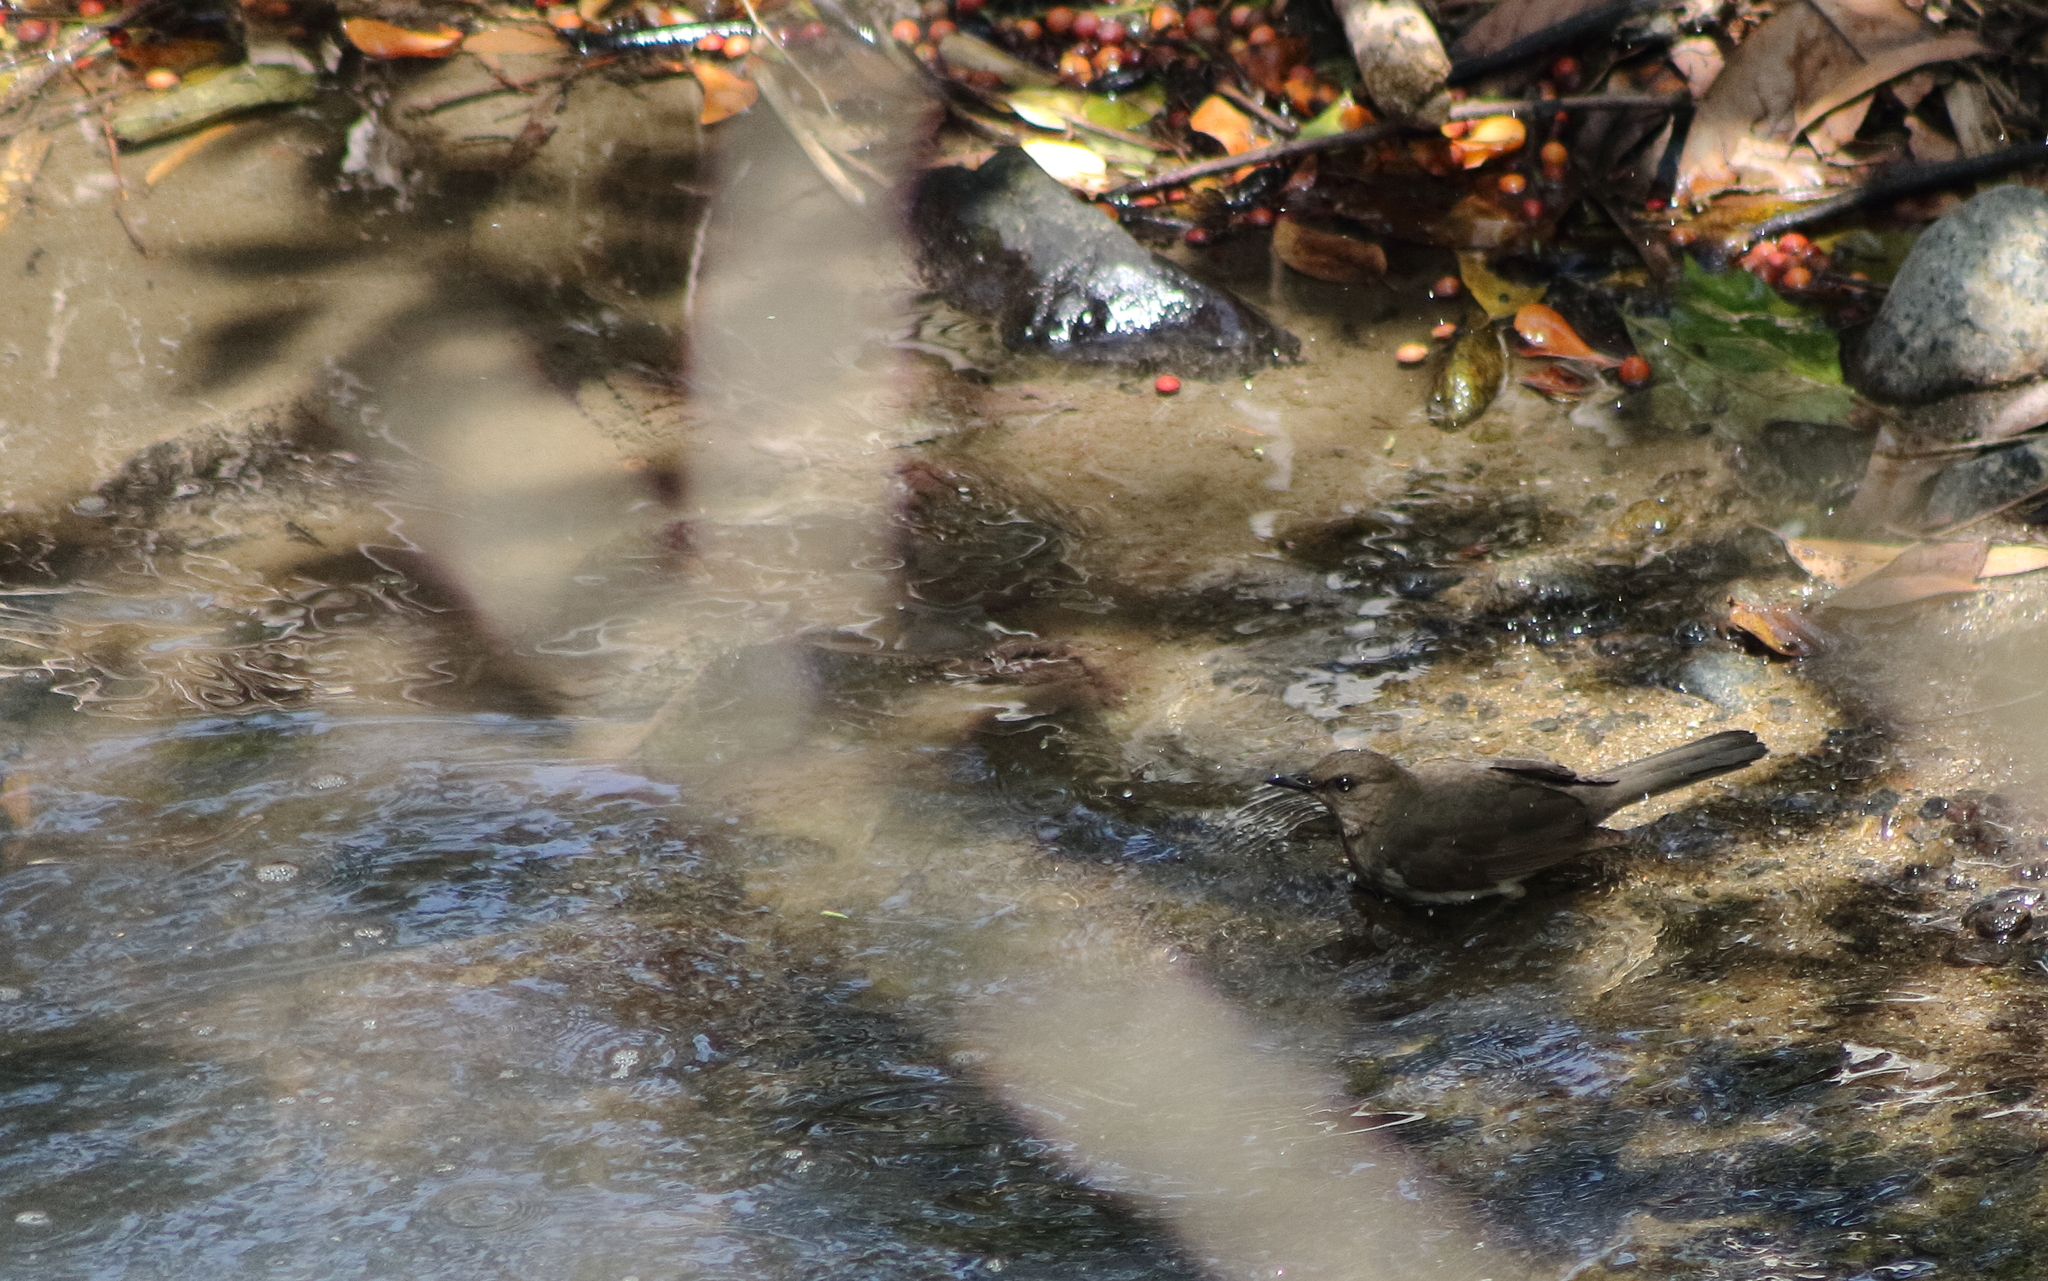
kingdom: Animalia
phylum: Chordata
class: Aves
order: Passeriformes
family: Turdidae
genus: Turdus
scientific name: Turdus ignobilis
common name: Black-billed thrush
